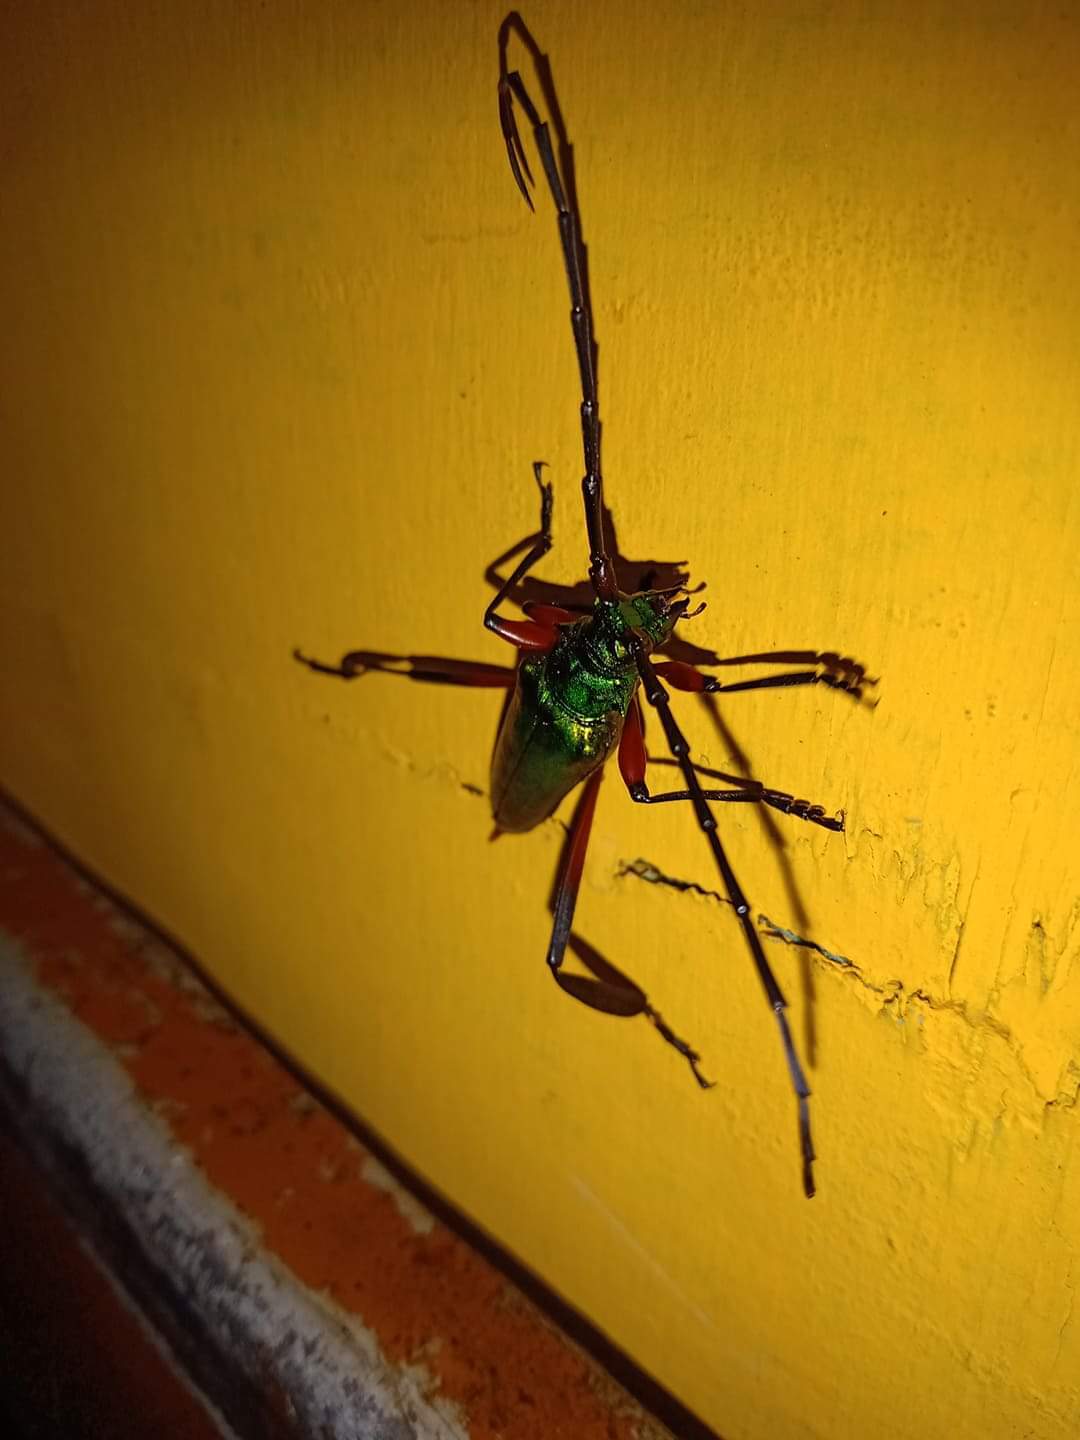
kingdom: Animalia
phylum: Arthropoda
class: Insecta
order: Coleoptera
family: Cerambycidae
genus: Callichroma
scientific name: Callichroma holochlorum
